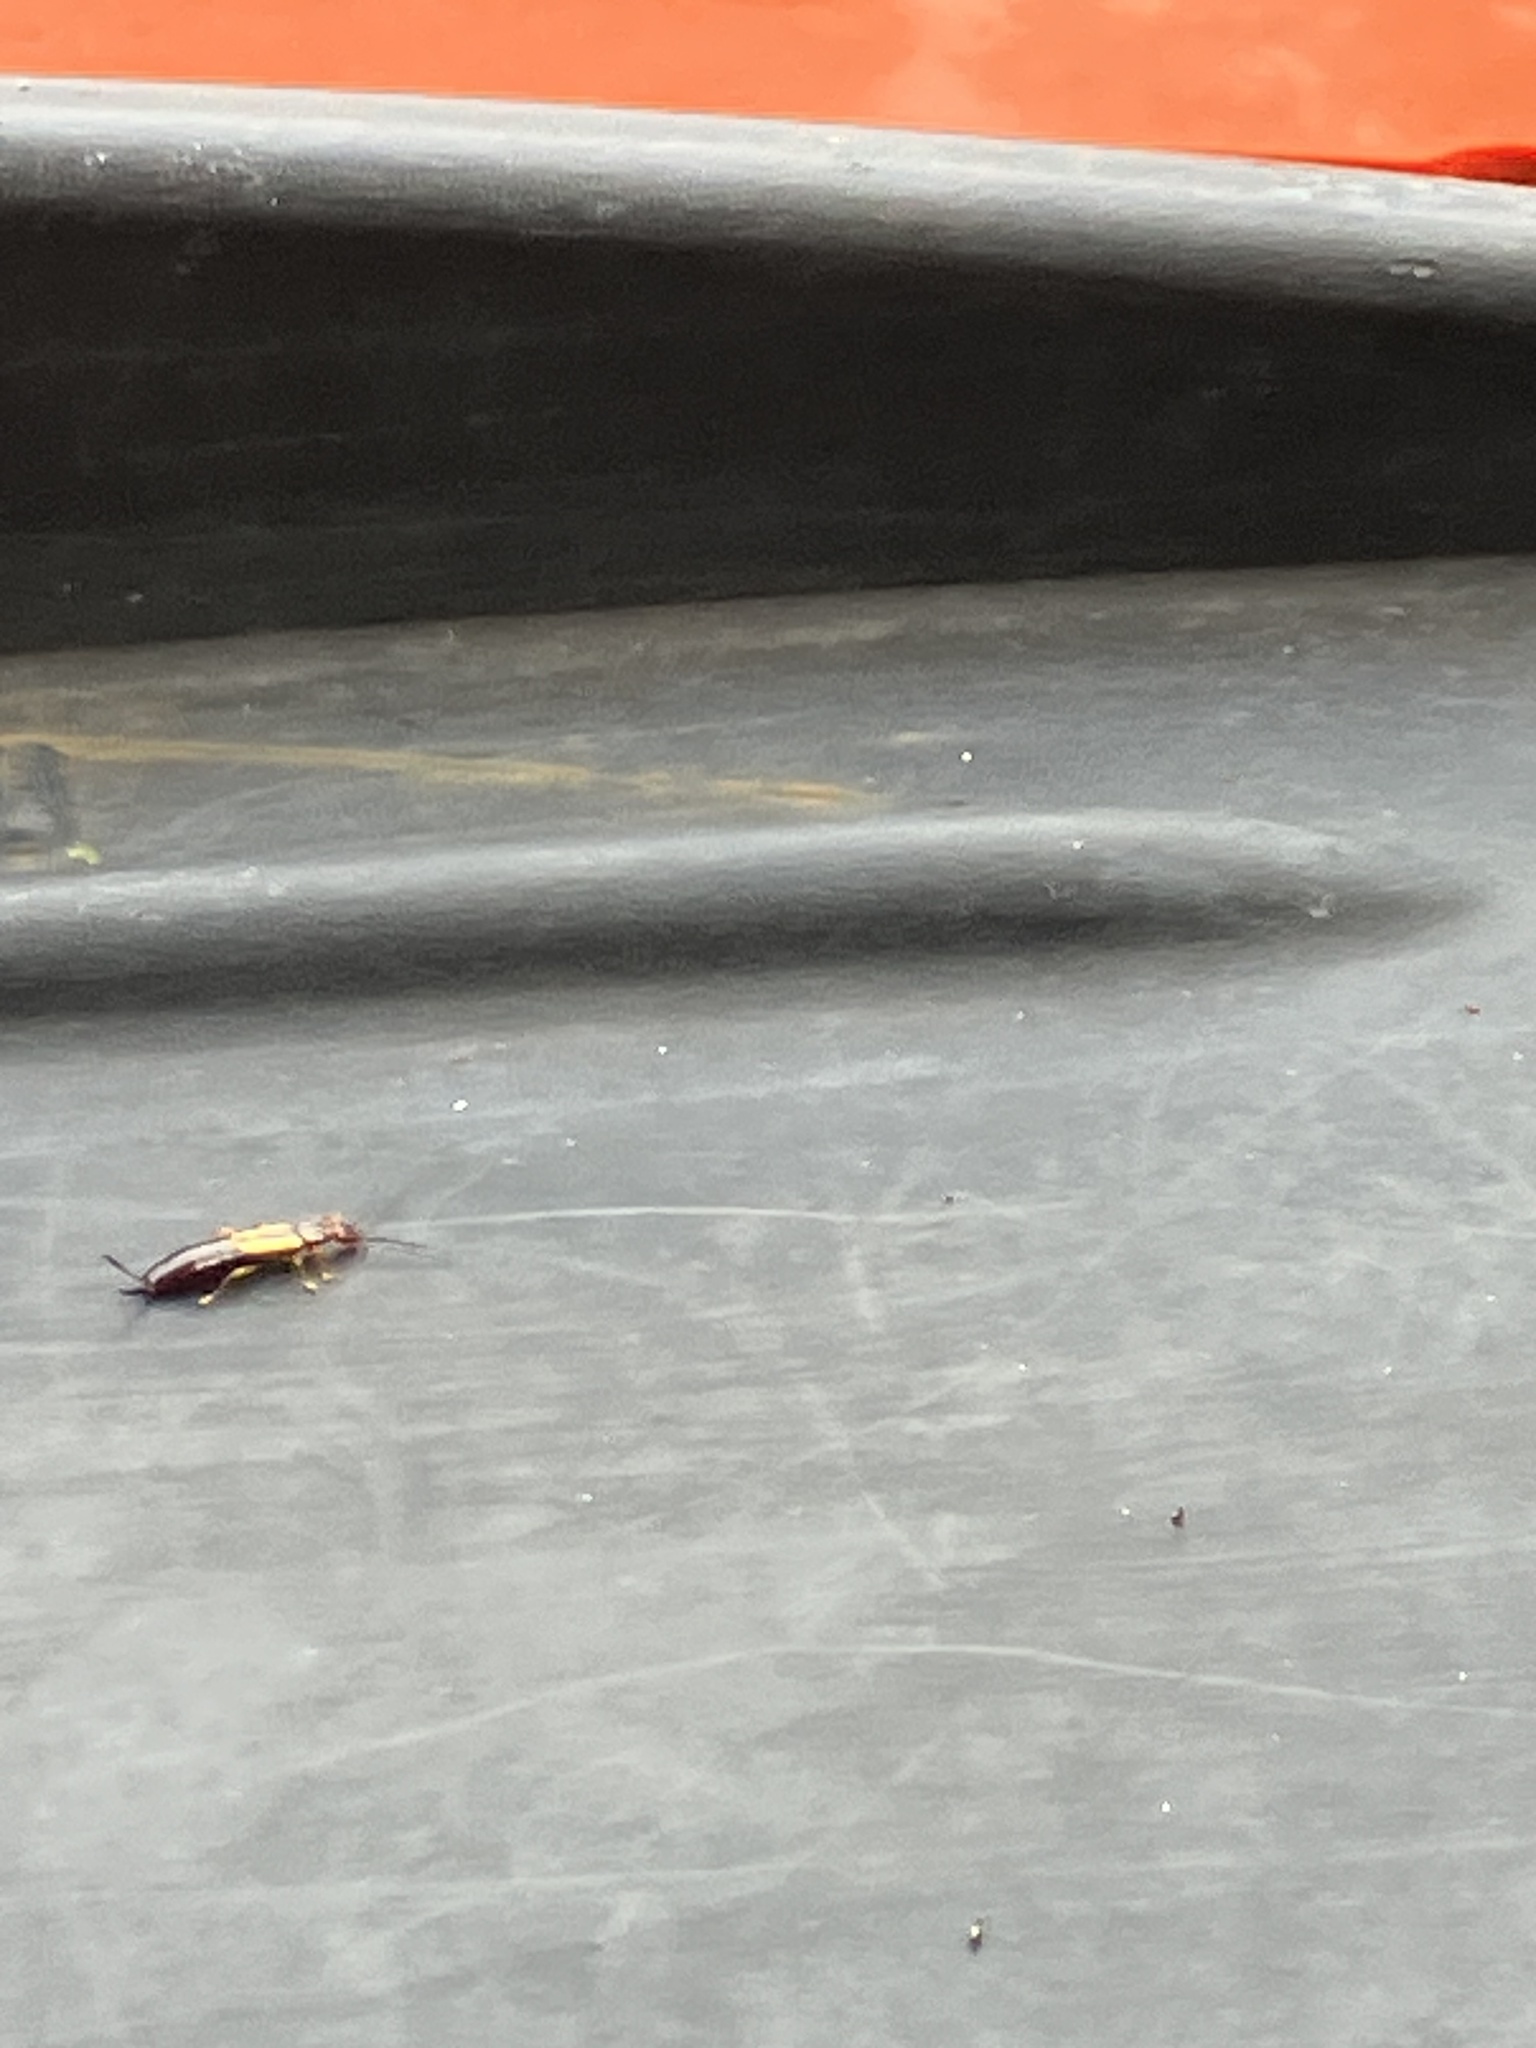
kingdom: Animalia
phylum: Arthropoda
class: Insecta
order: Dermaptera
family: Forficulidae
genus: Doru
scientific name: Doru taeniatum
